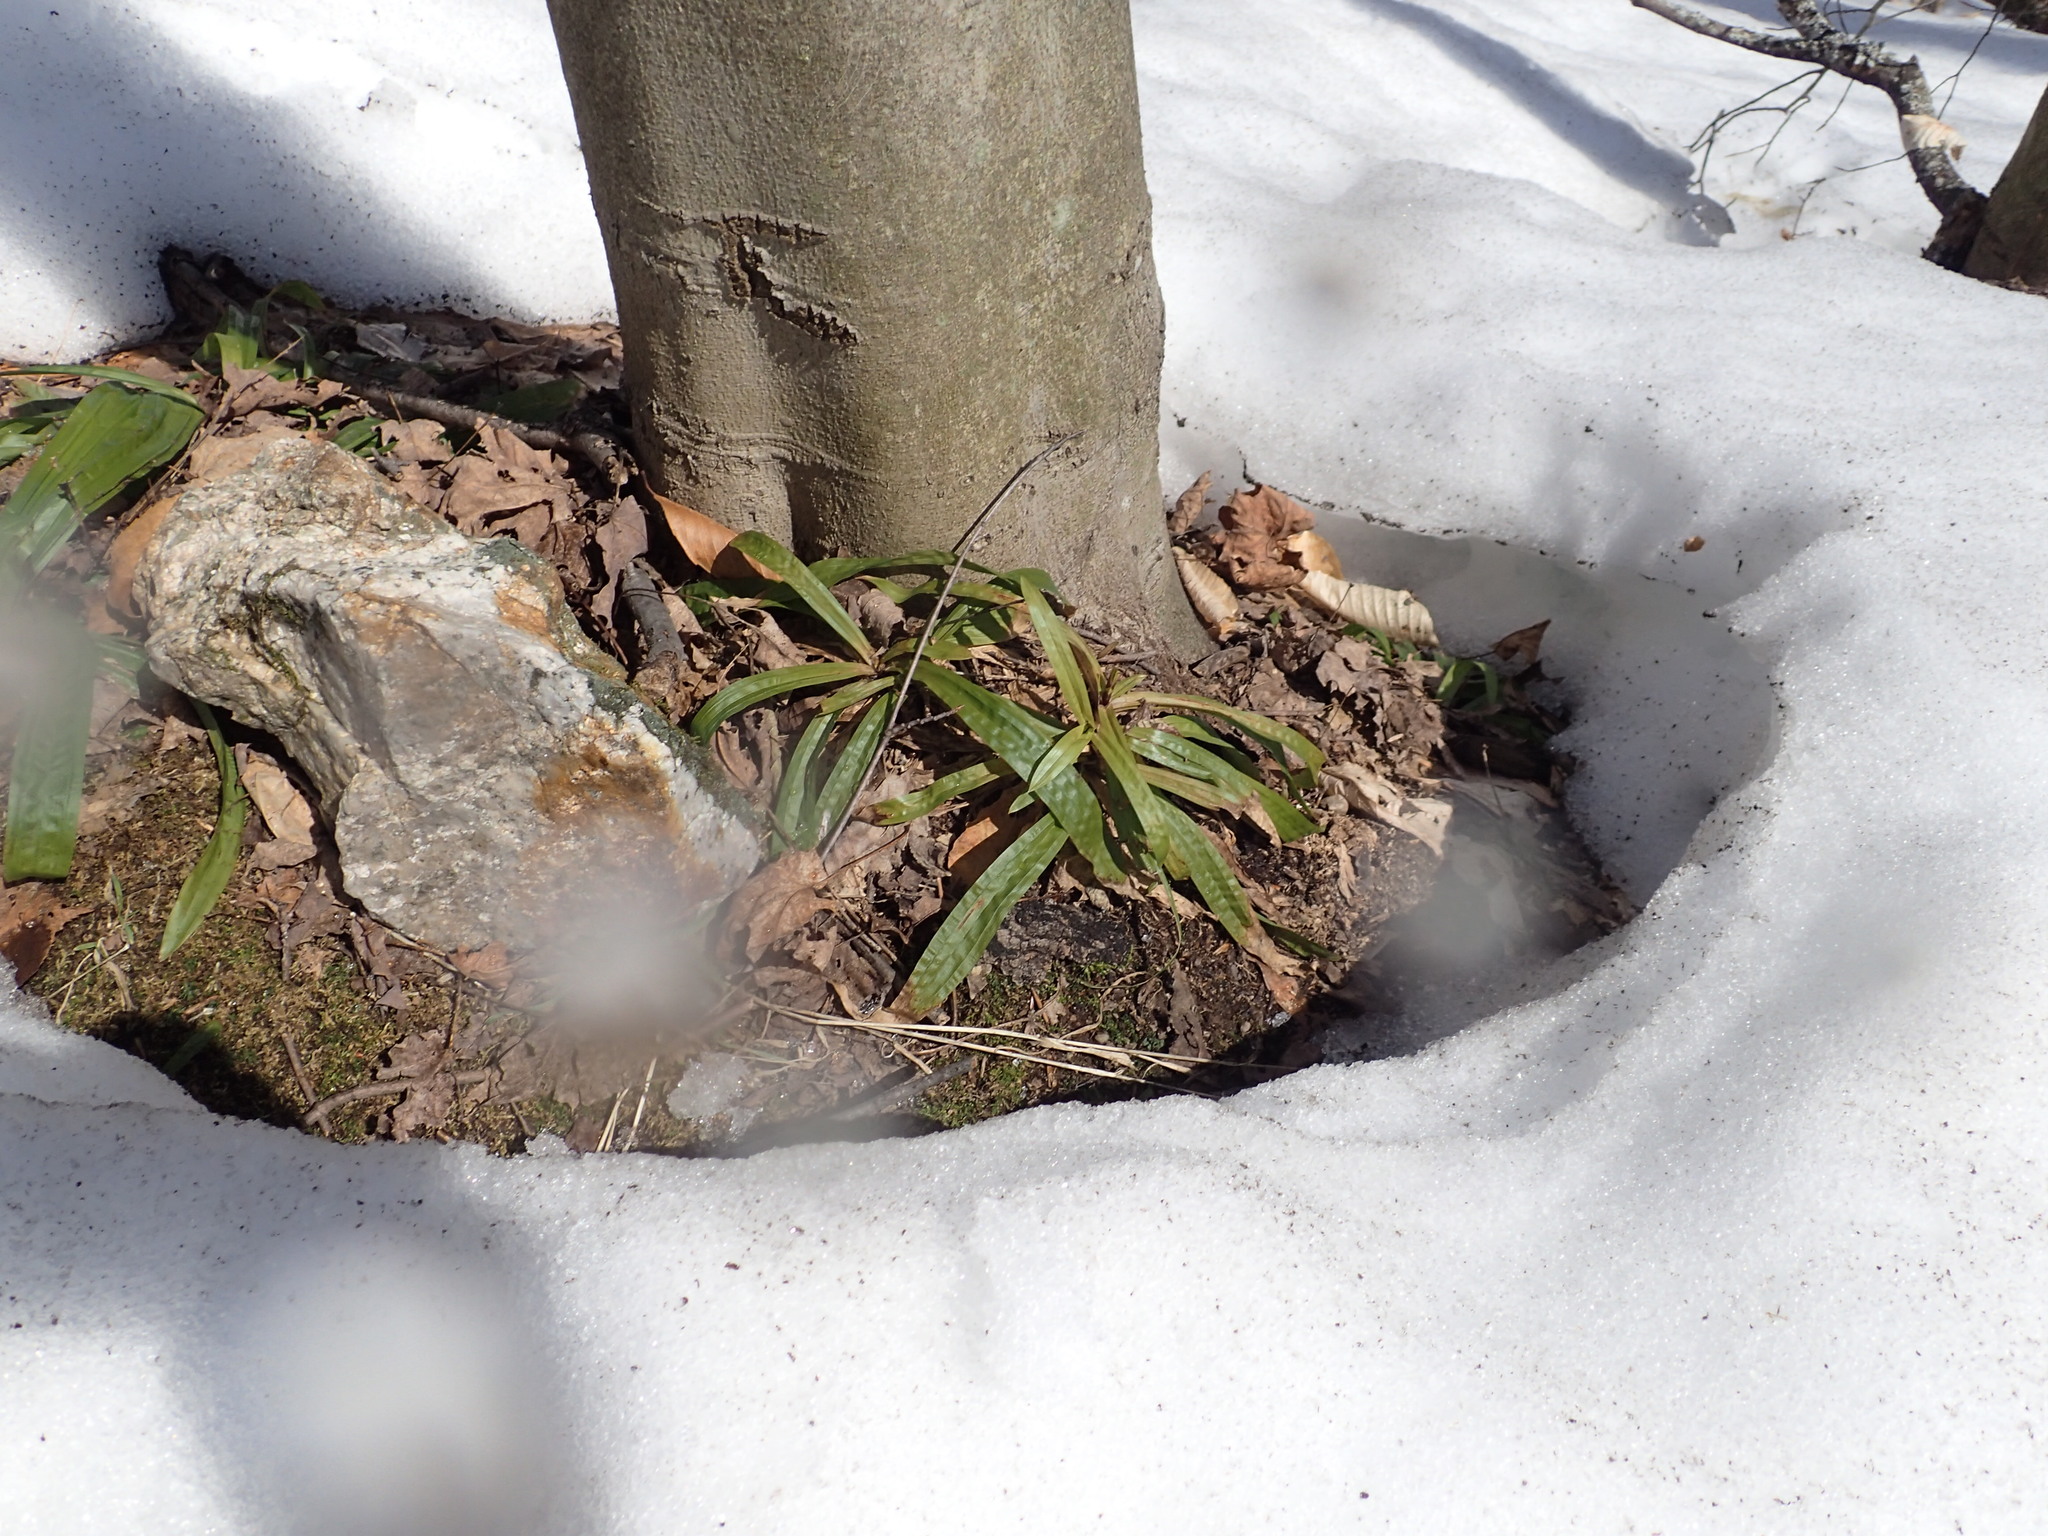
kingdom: Plantae
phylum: Tracheophyta
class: Liliopsida
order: Poales
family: Cyperaceae
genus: Carex
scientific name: Carex plantaginea
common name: Plantain-leaved sedge
